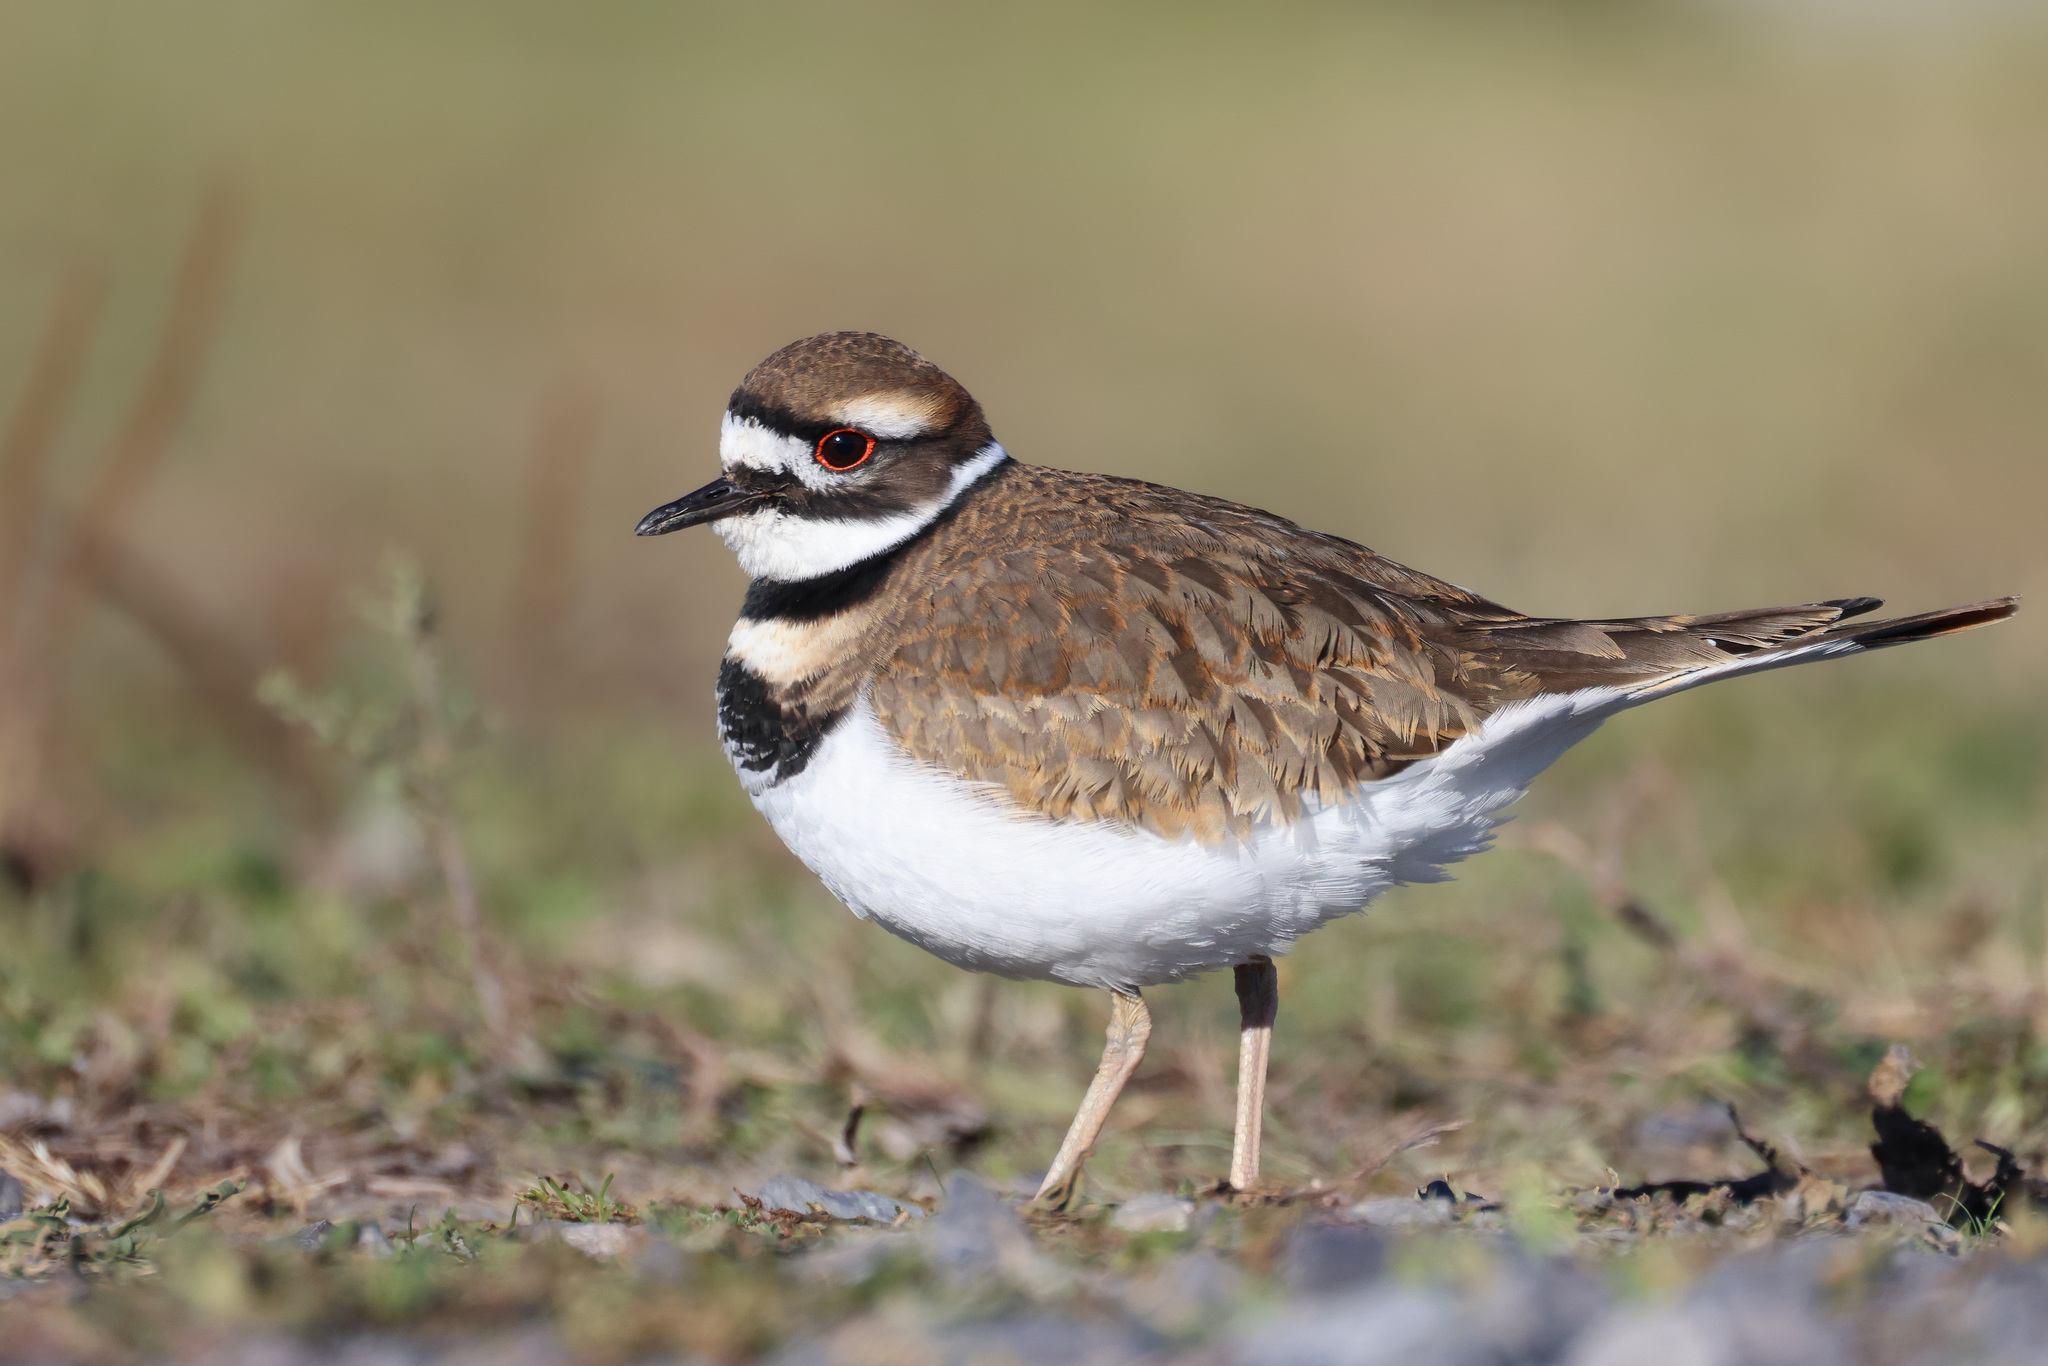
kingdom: Animalia
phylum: Chordata
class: Aves
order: Charadriiformes
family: Charadriidae
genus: Charadrius
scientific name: Charadrius vociferus
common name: Killdeer
